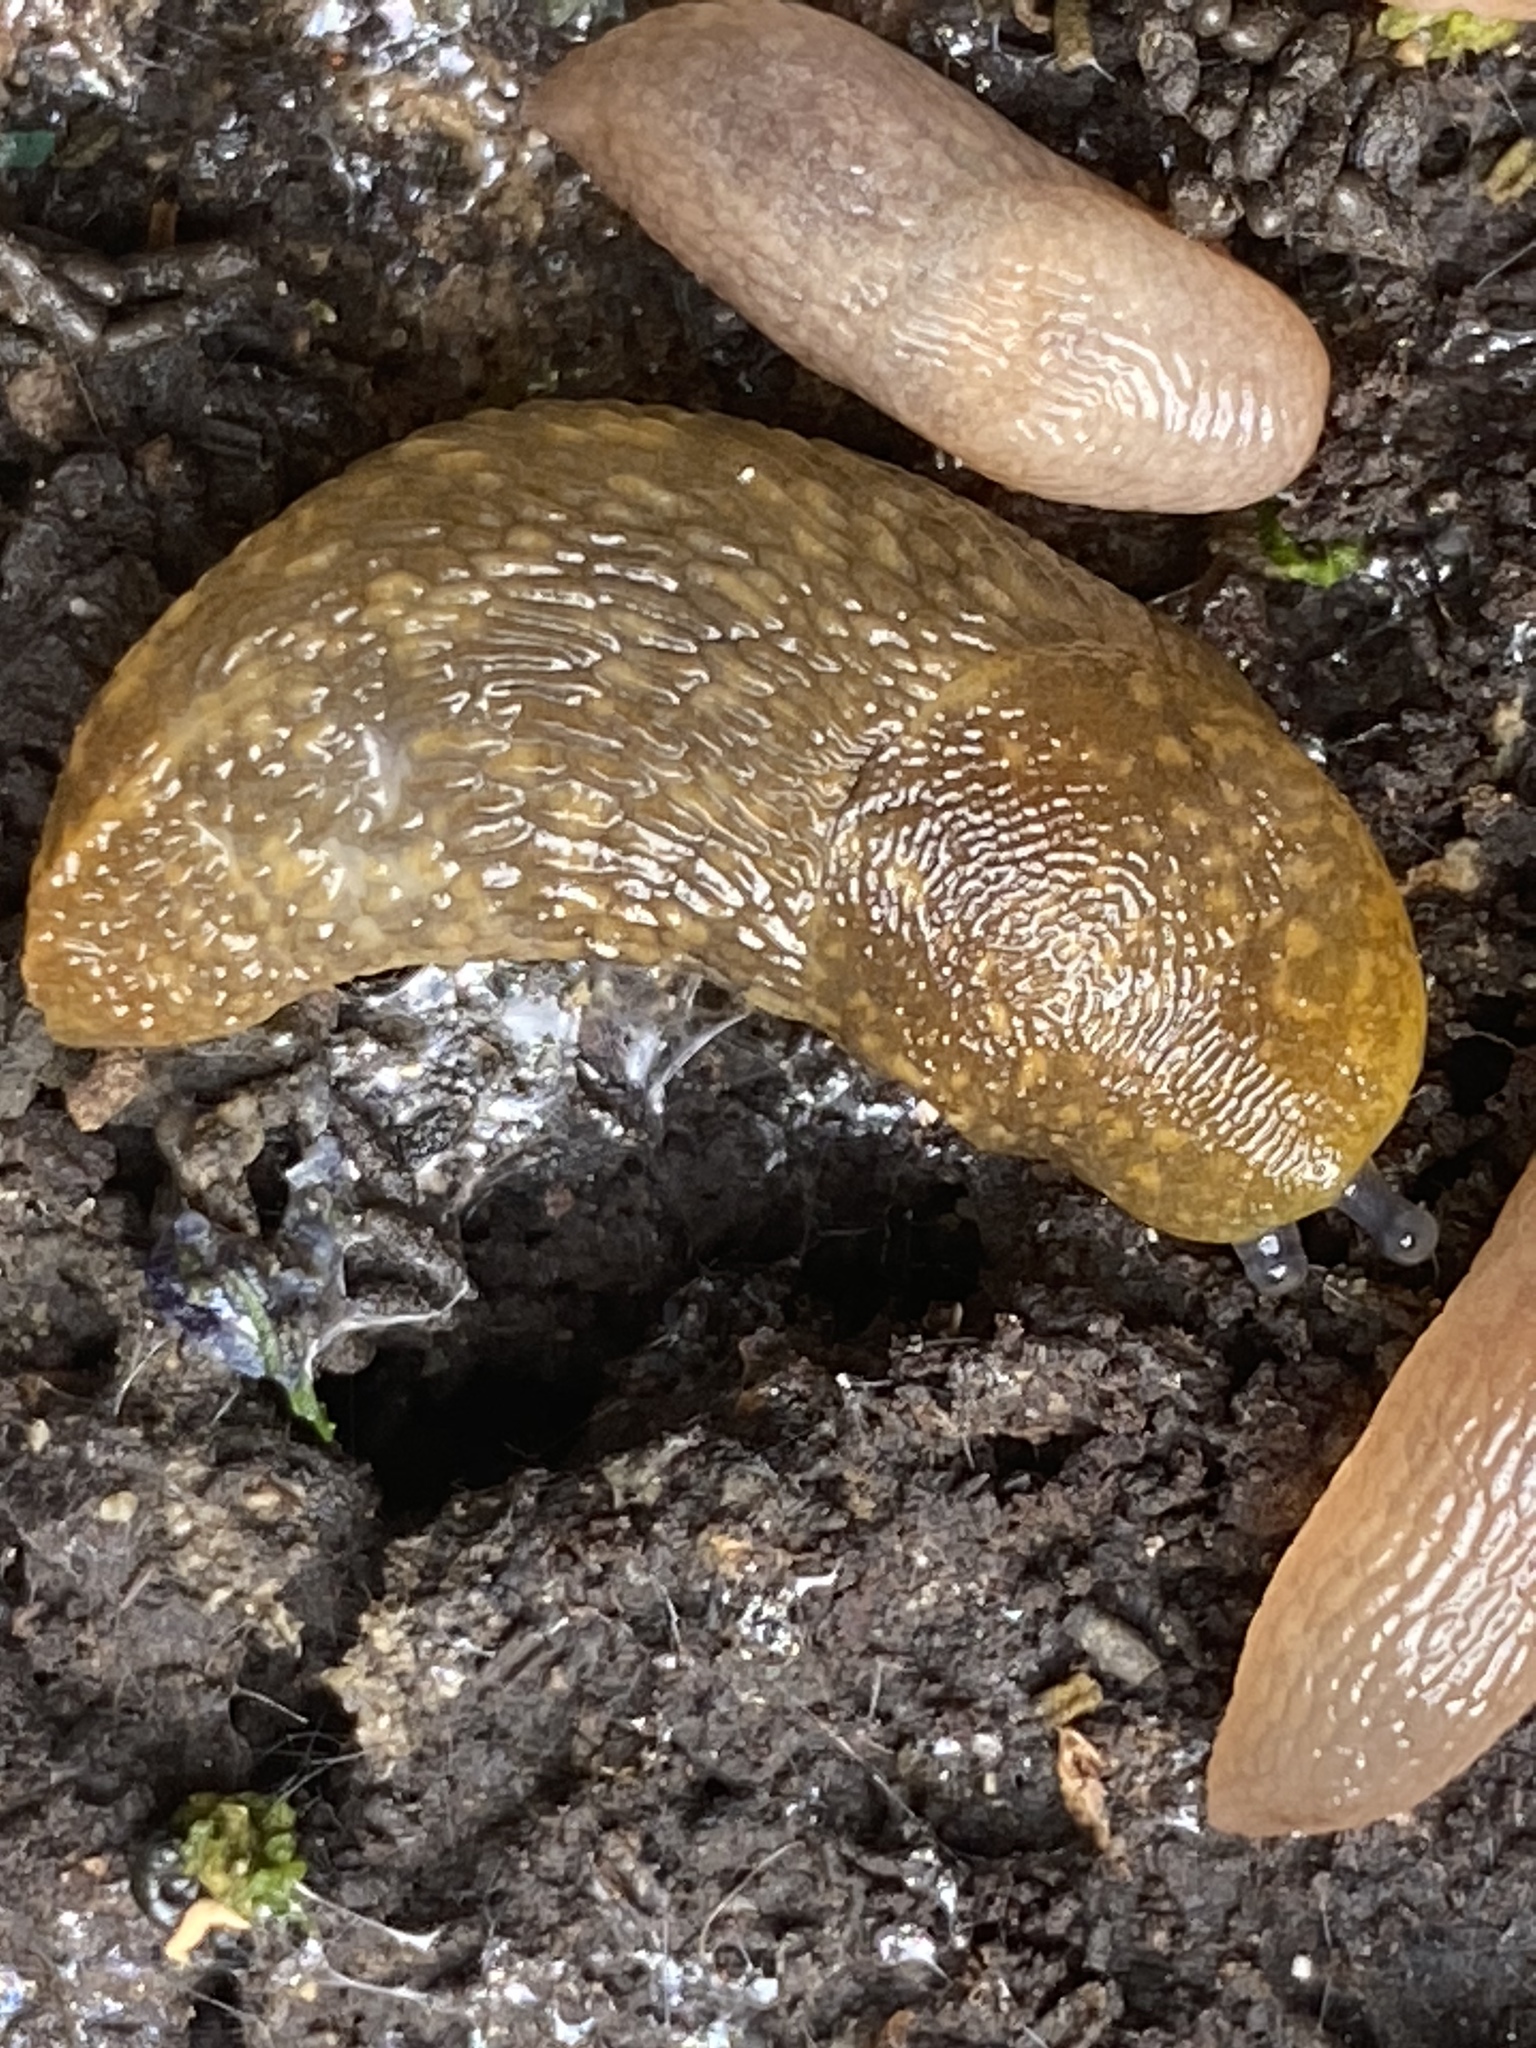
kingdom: Animalia
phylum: Mollusca
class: Gastropoda
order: Stylommatophora
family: Limacidae
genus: Limacus
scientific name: Limacus flavus
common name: Yellow gardenslug
